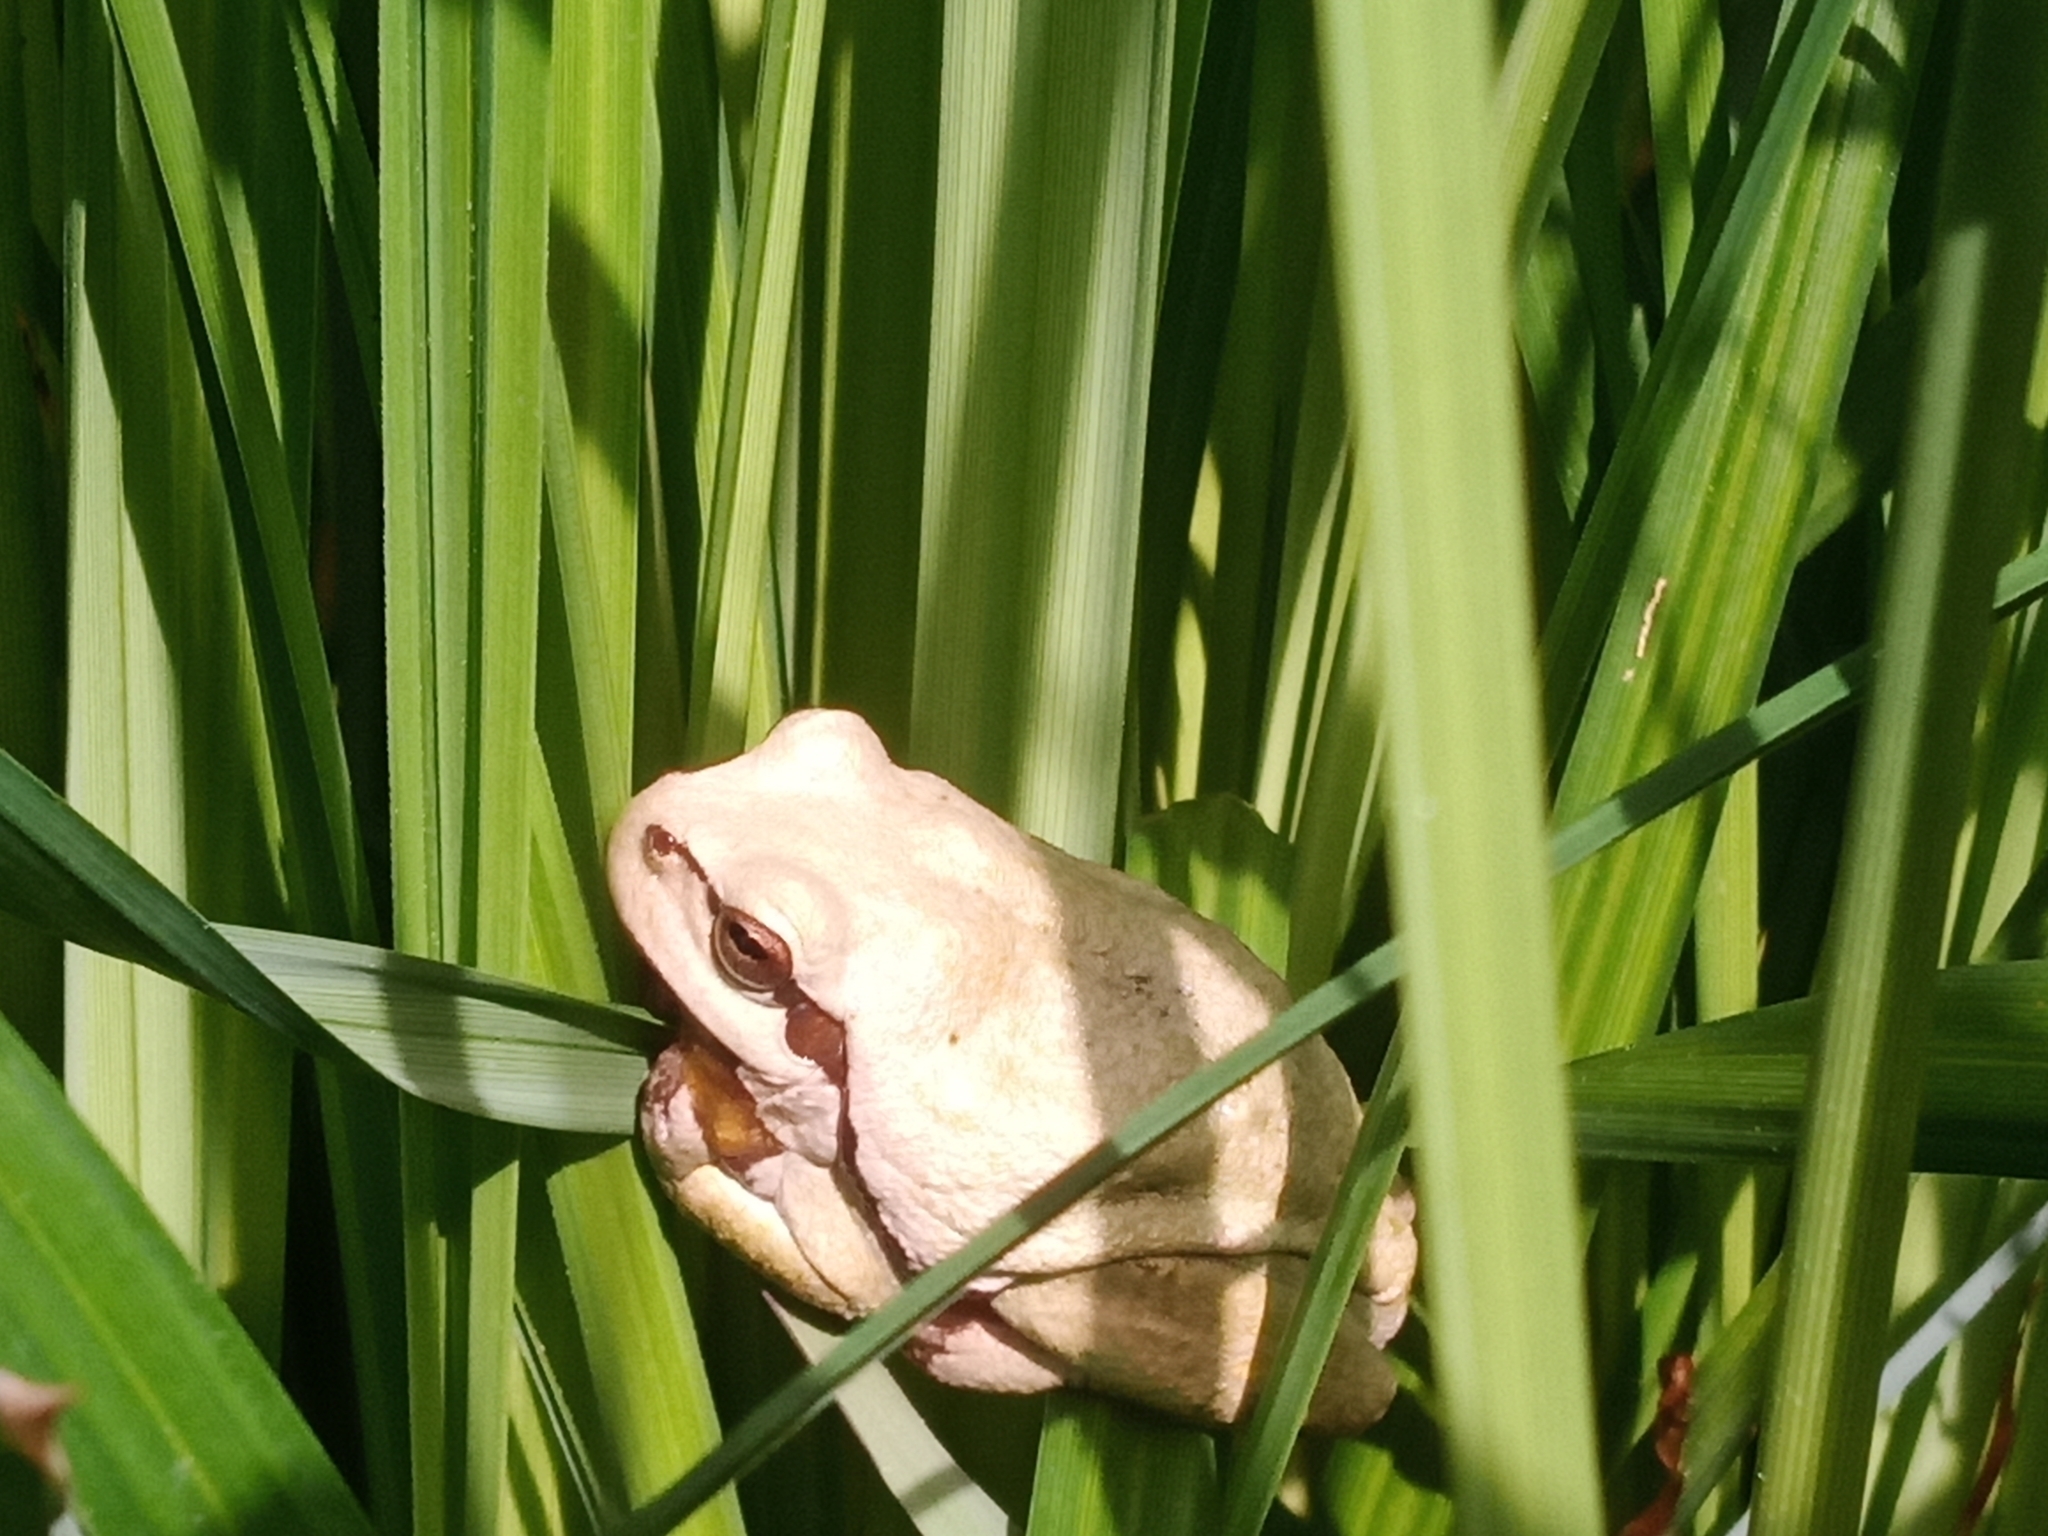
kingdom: Animalia
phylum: Chordata
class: Amphibia
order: Anura
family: Hylidae
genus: Hyla
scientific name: Hyla arborea
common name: Common tree frog
